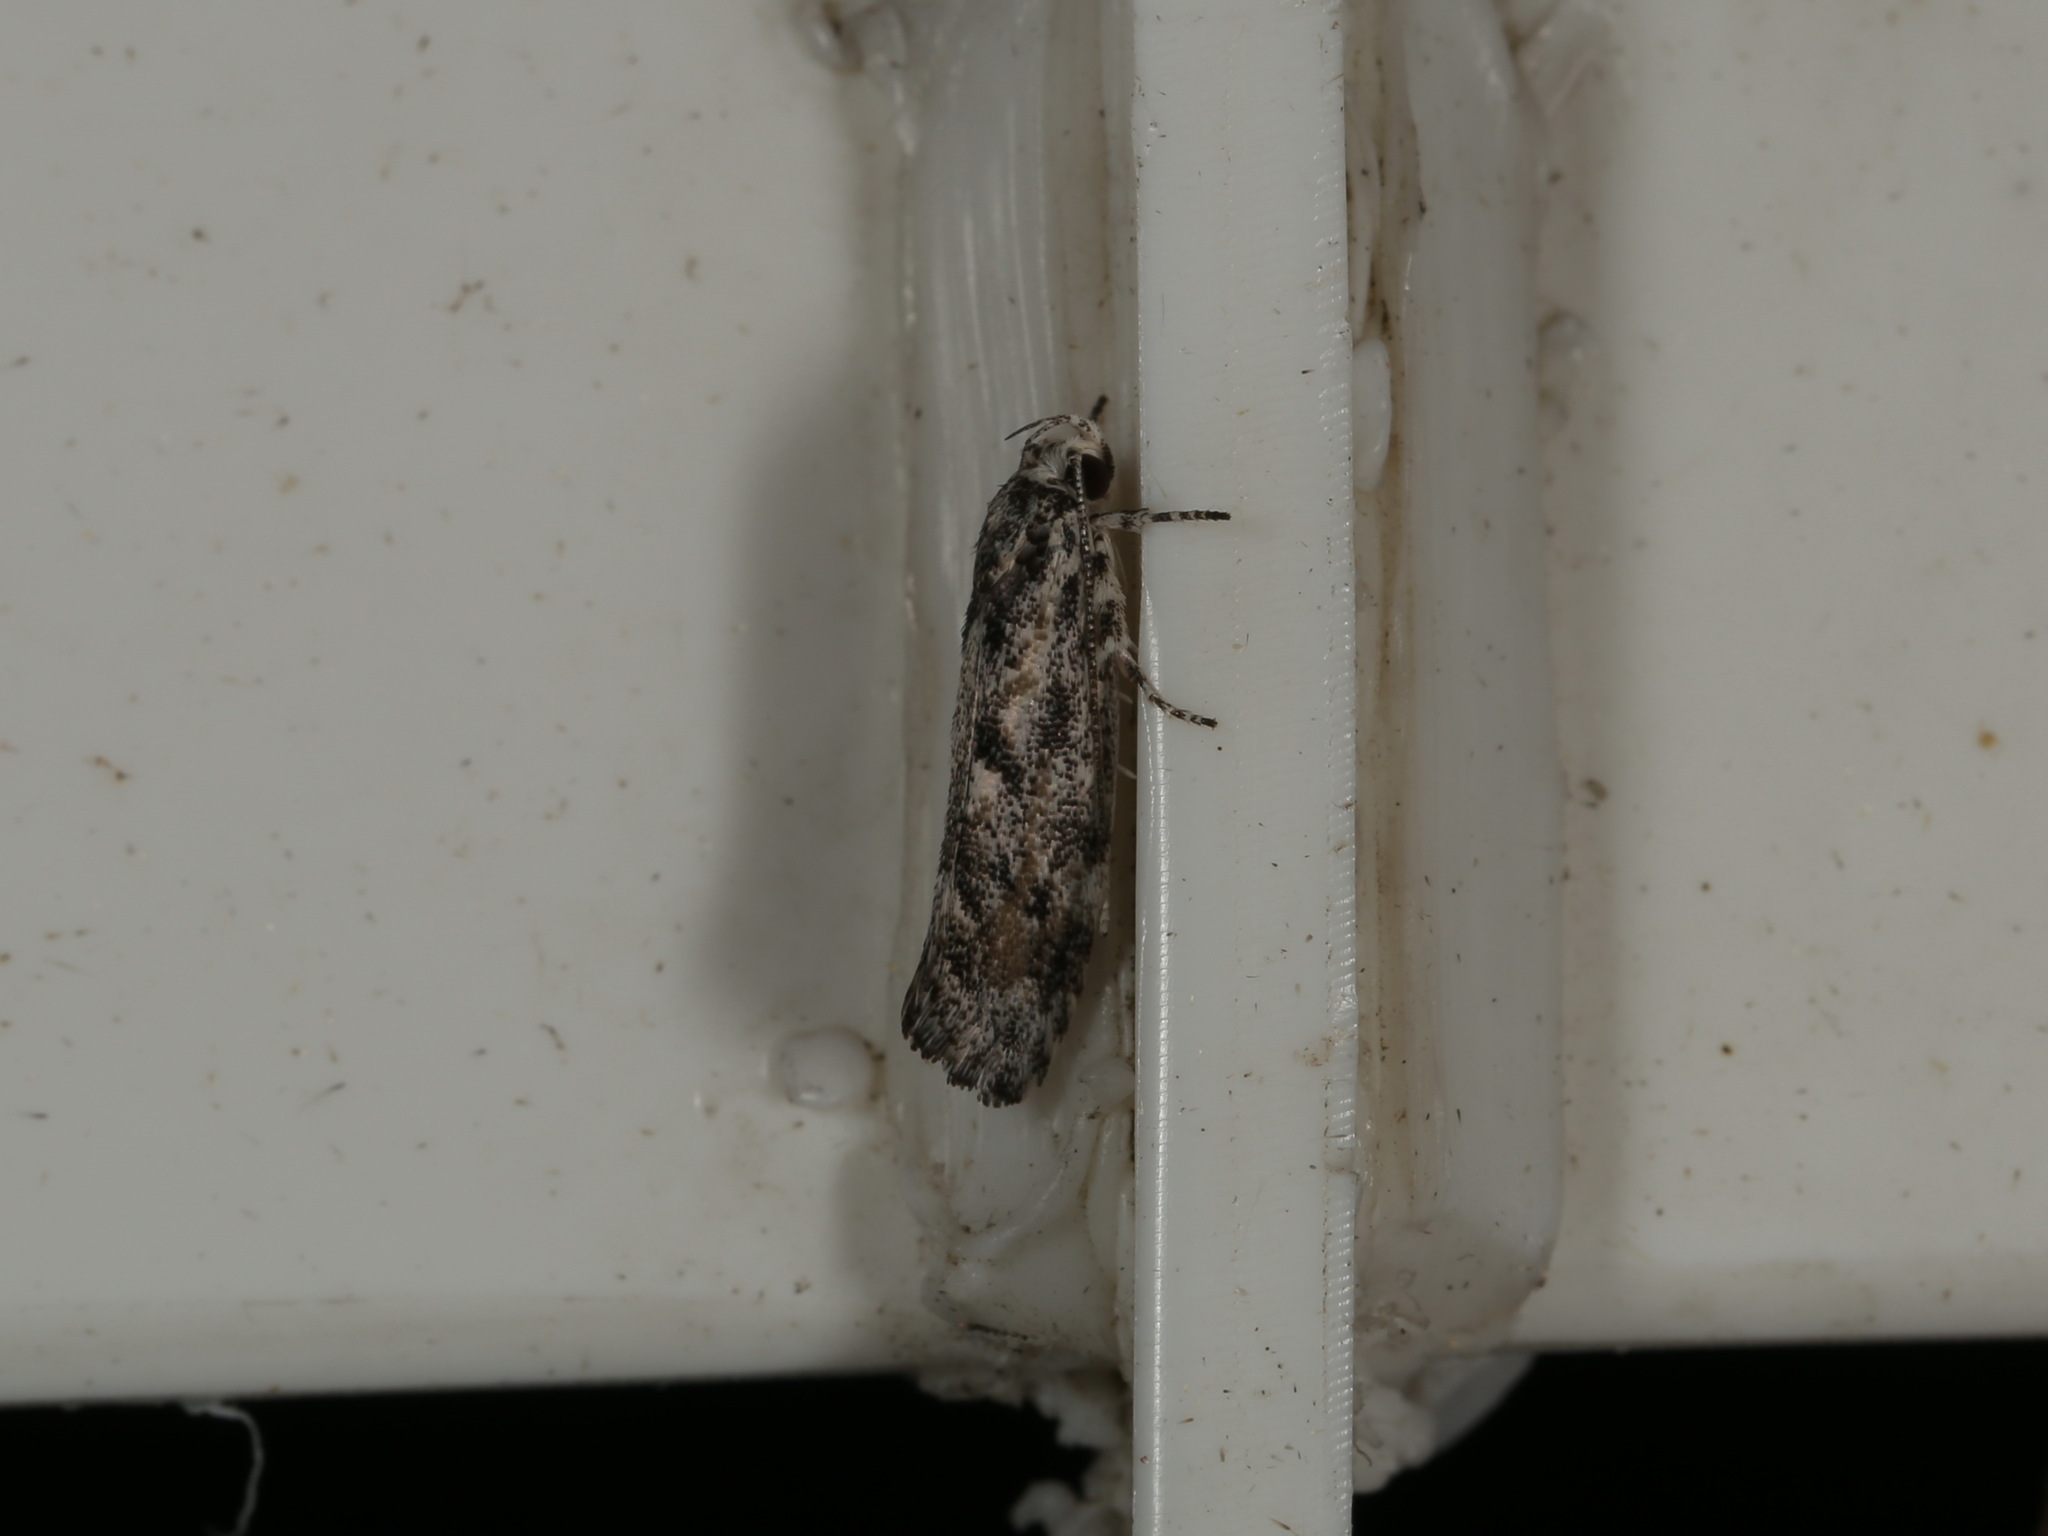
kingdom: Animalia
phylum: Arthropoda
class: Insecta
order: Lepidoptera
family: Xyloryctidae
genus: Lichenaula
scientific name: Lichenaula appropinquans
